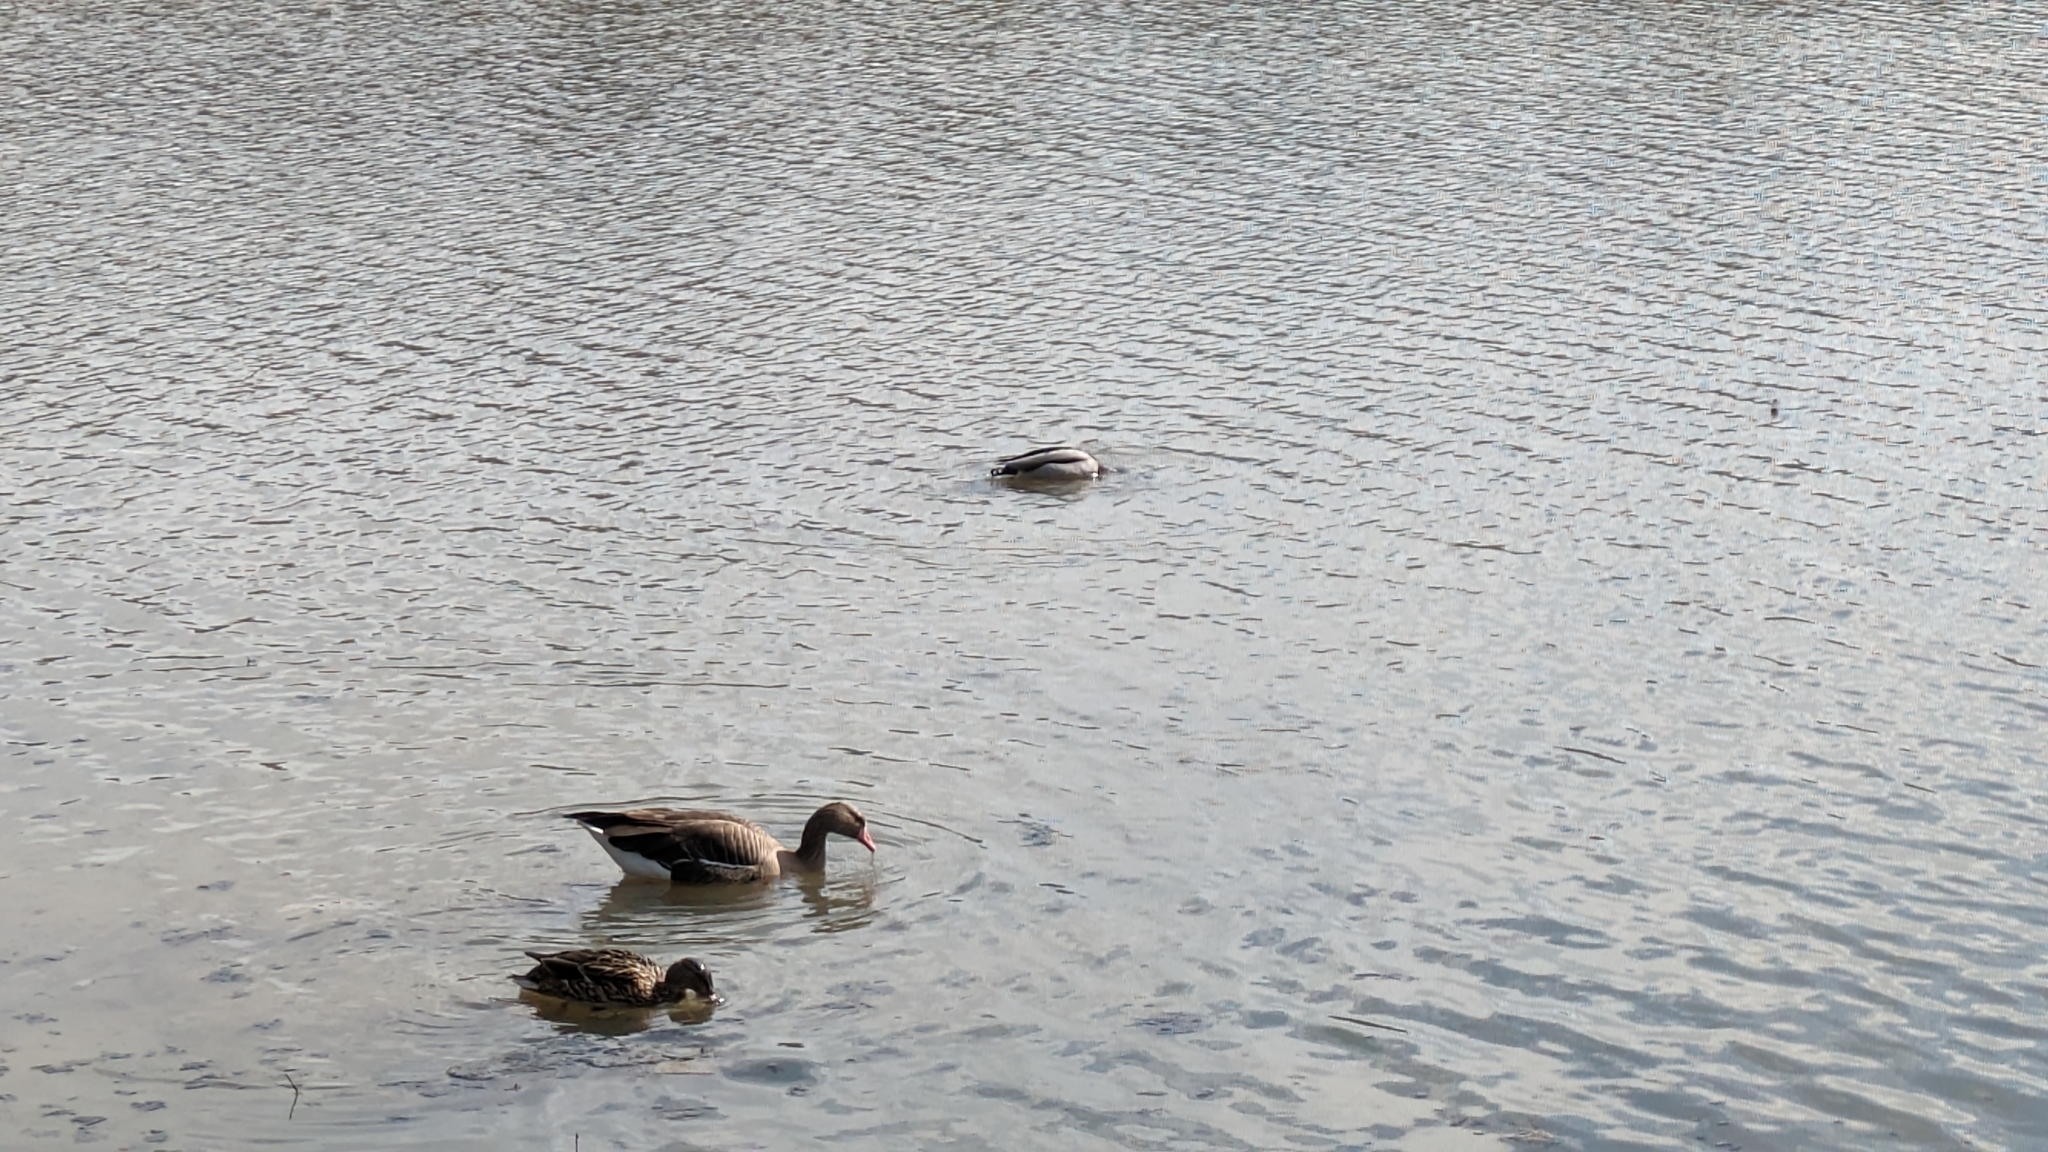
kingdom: Animalia
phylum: Chordata
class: Aves
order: Anseriformes
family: Anatidae
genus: Anser
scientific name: Anser albifrons
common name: Greater white-fronted goose
